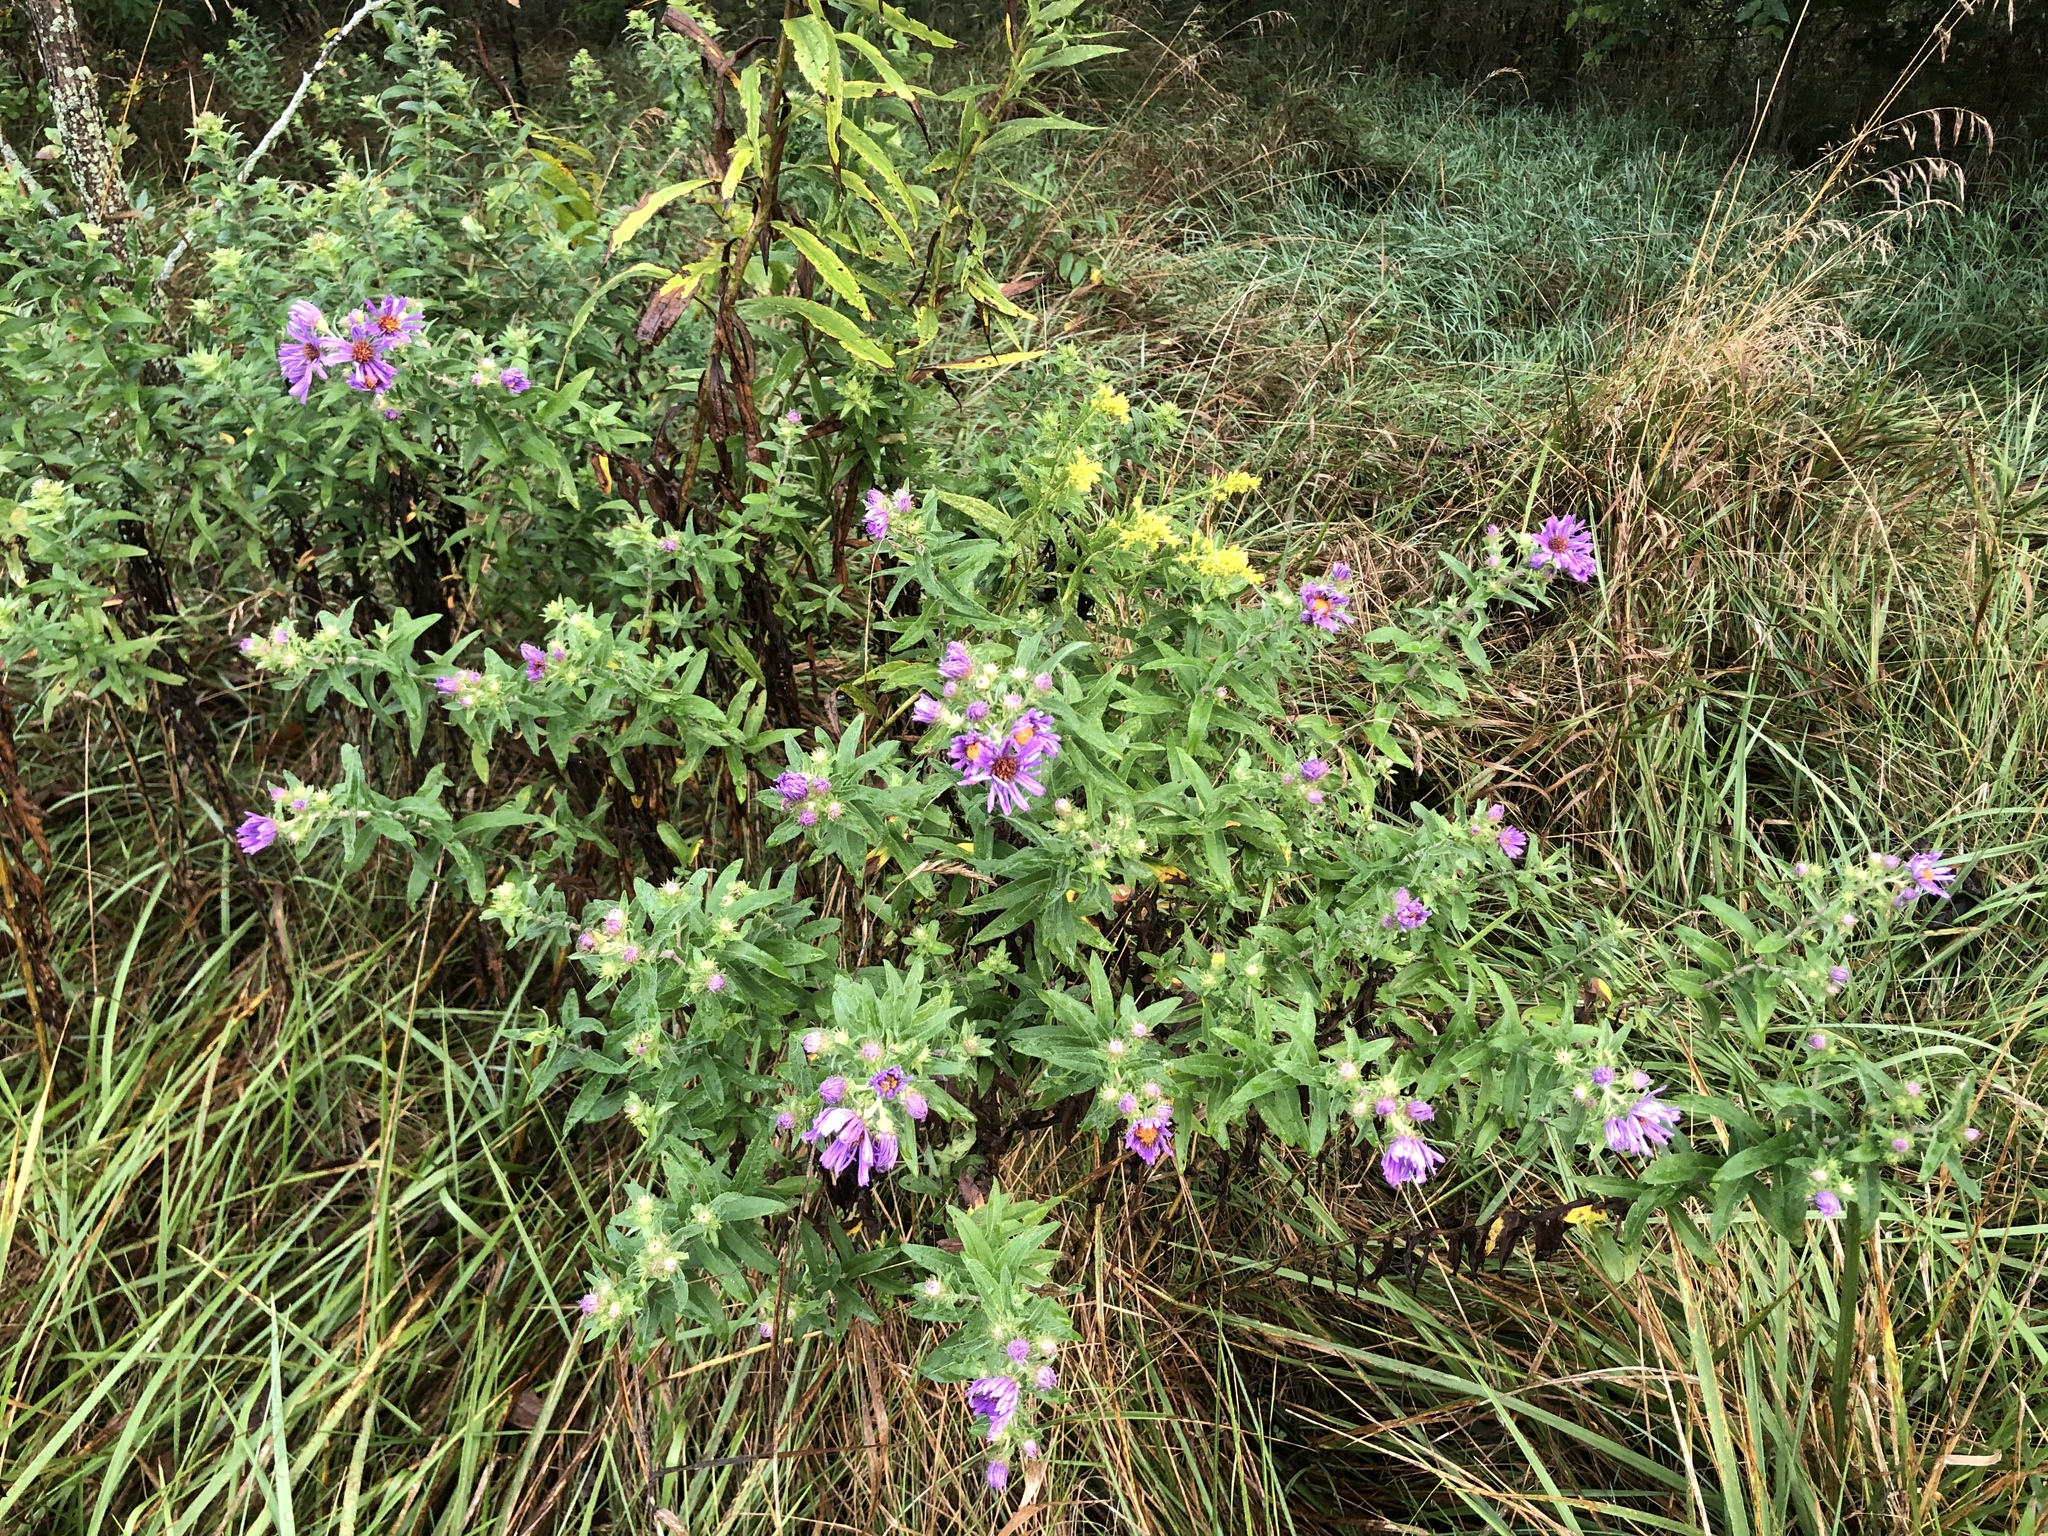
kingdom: Plantae
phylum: Tracheophyta
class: Magnoliopsida
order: Asterales
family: Asteraceae
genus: Symphyotrichum
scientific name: Symphyotrichum novae-angliae
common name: Michaelmas daisy
